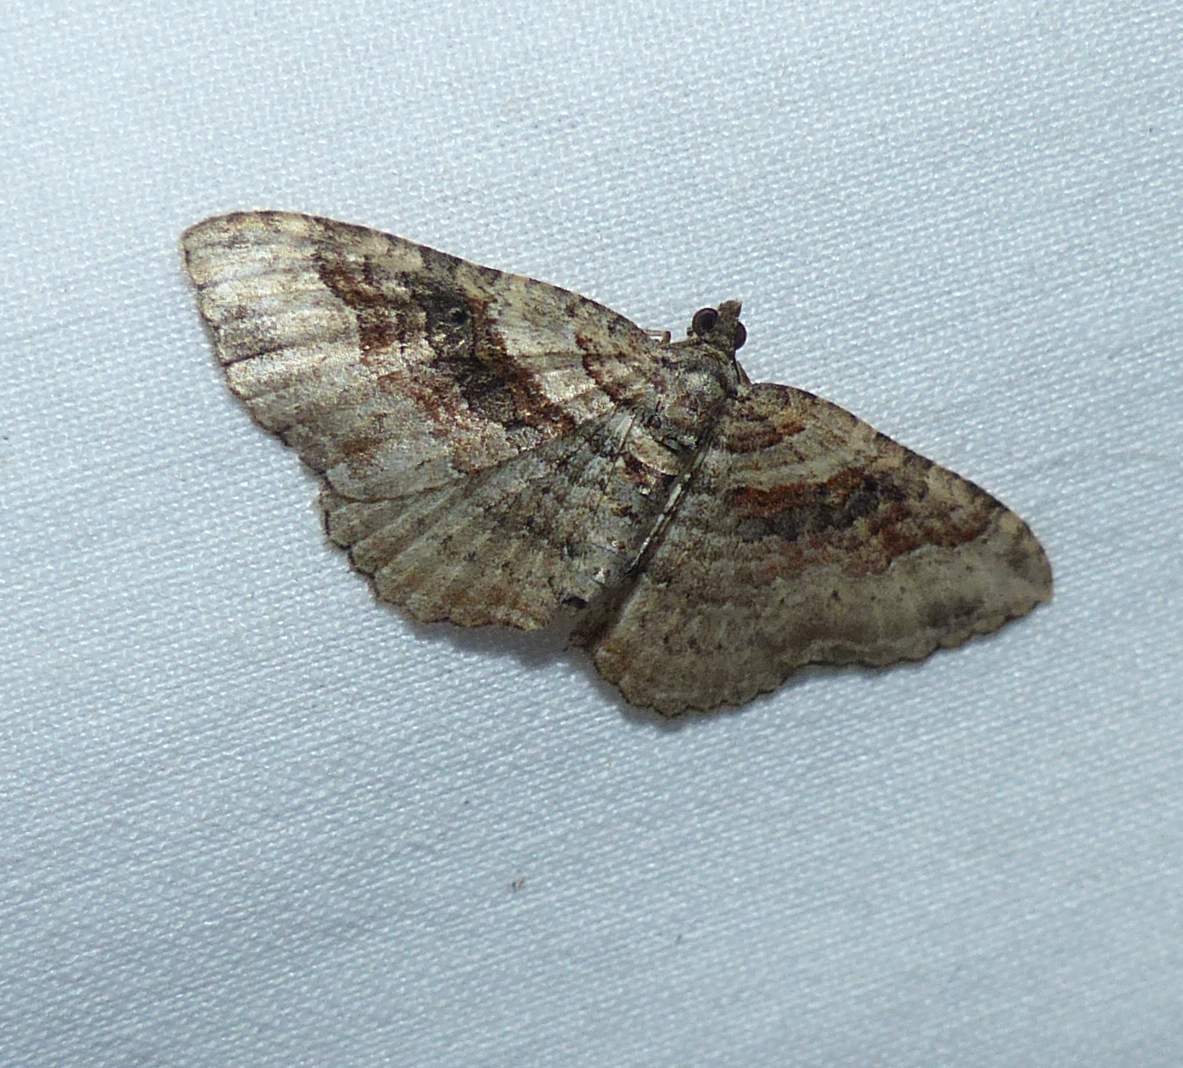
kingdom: Animalia
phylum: Arthropoda
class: Insecta
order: Lepidoptera
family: Geometridae
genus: Costaconvexa
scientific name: Costaconvexa centrostrigaria
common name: Bent-line carpet
